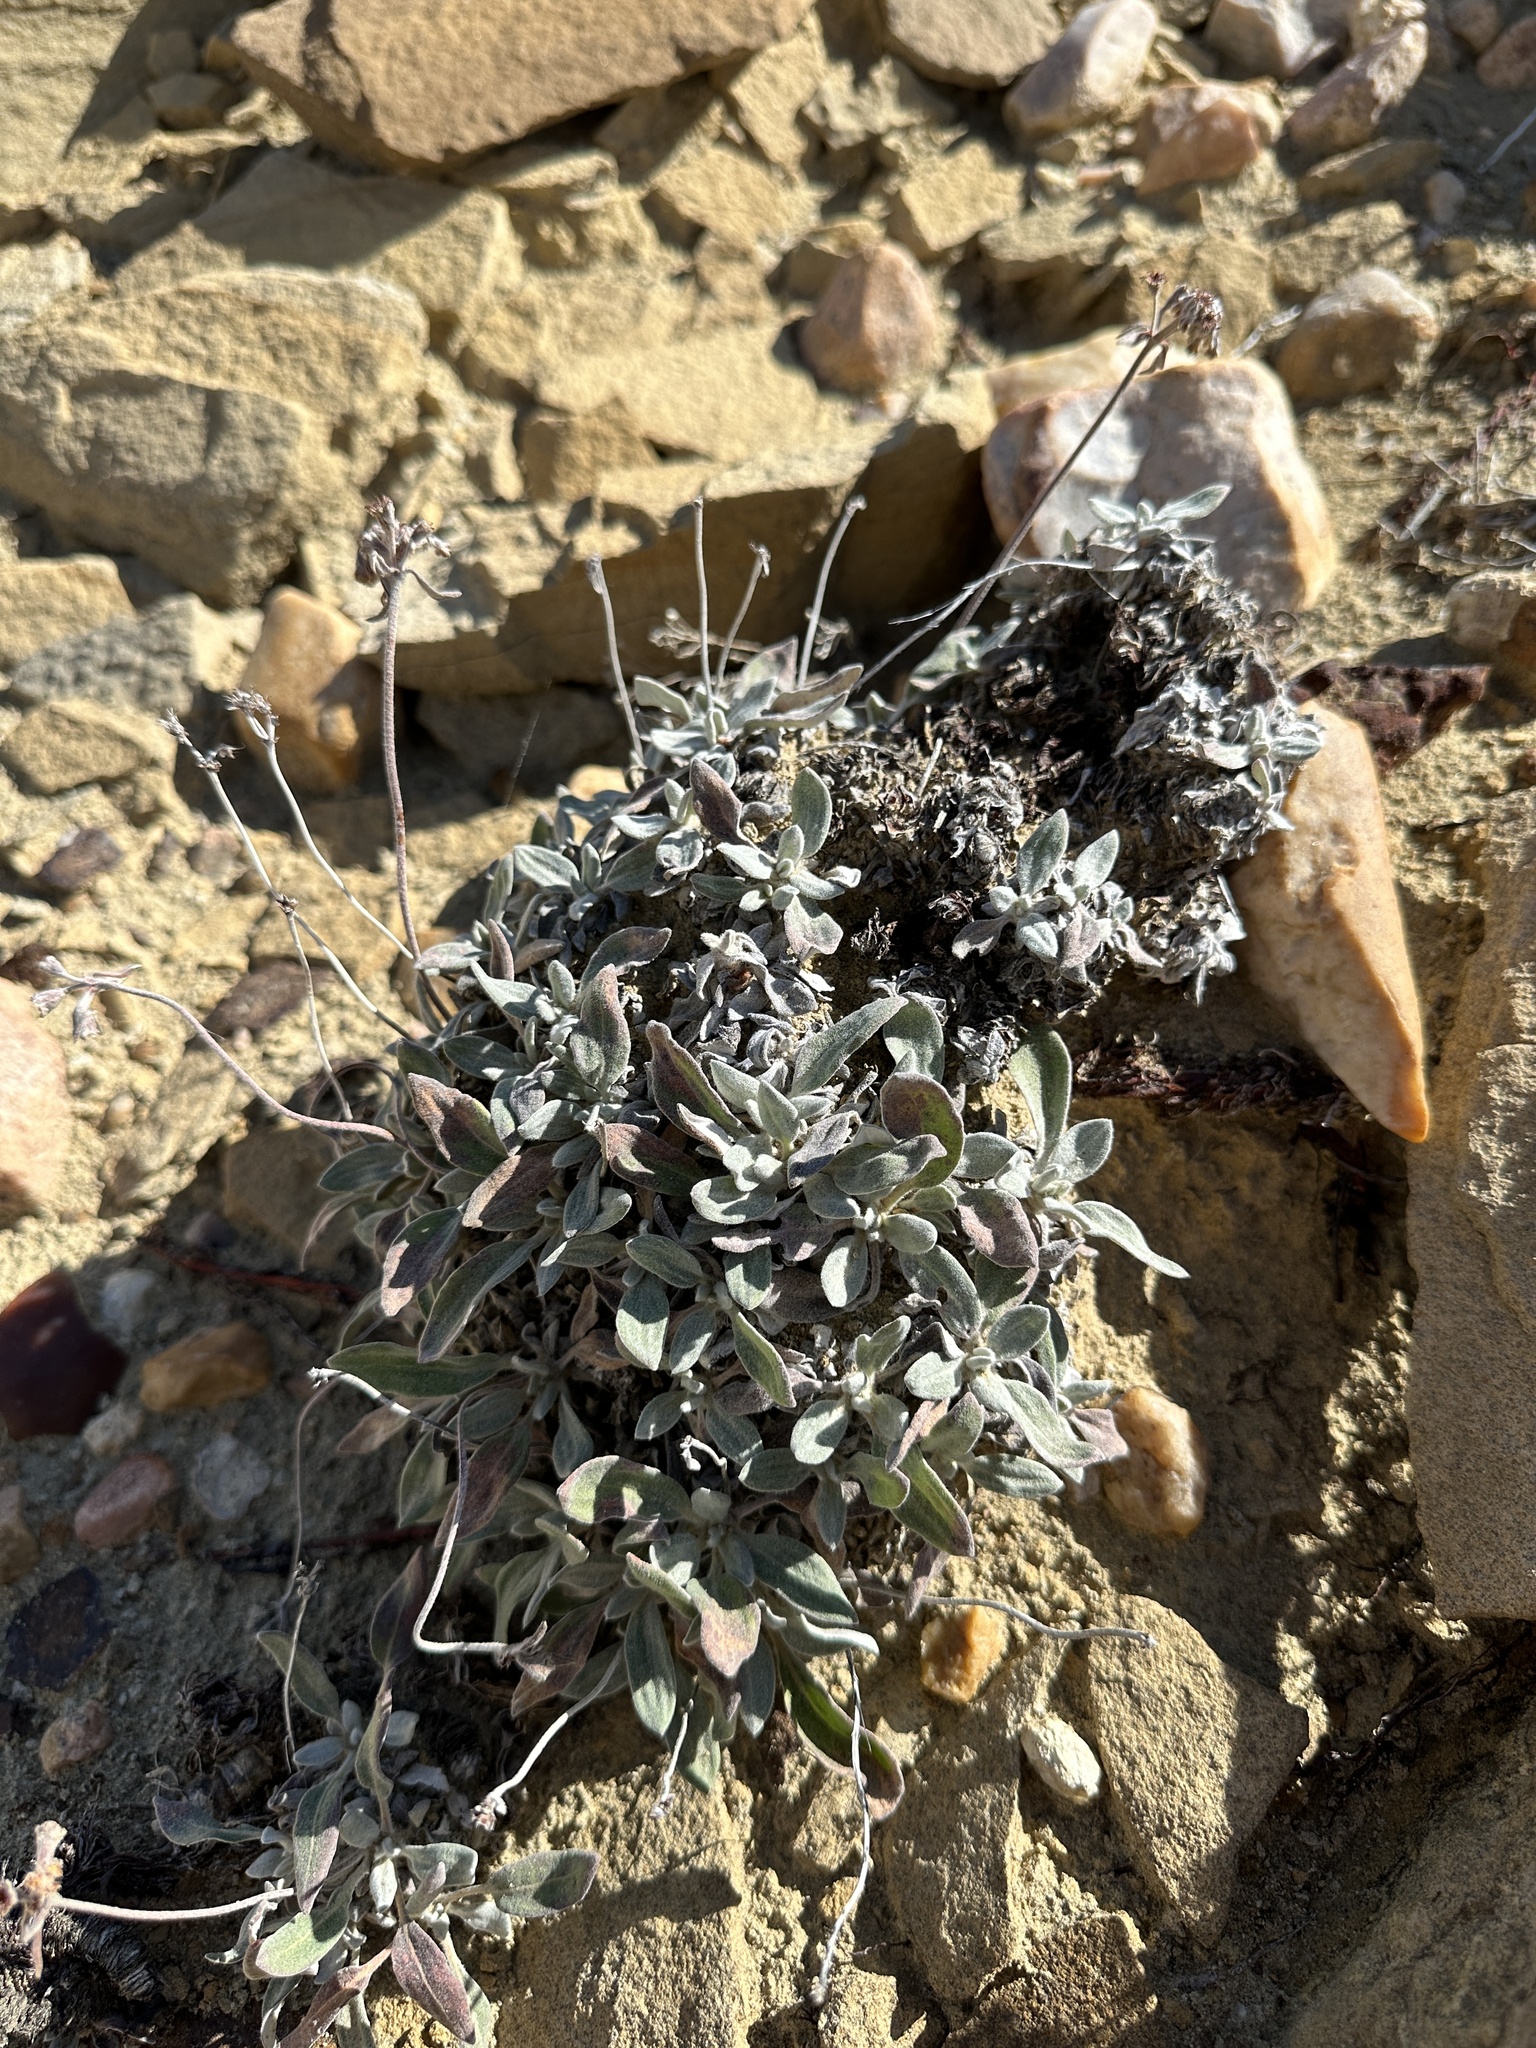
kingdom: Plantae
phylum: Tracheophyta
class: Magnoliopsida
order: Caryophyllales
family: Polygonaceae
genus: Eriogonum
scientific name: Eriogonum flavum
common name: Alpine golden wild buckwheat
